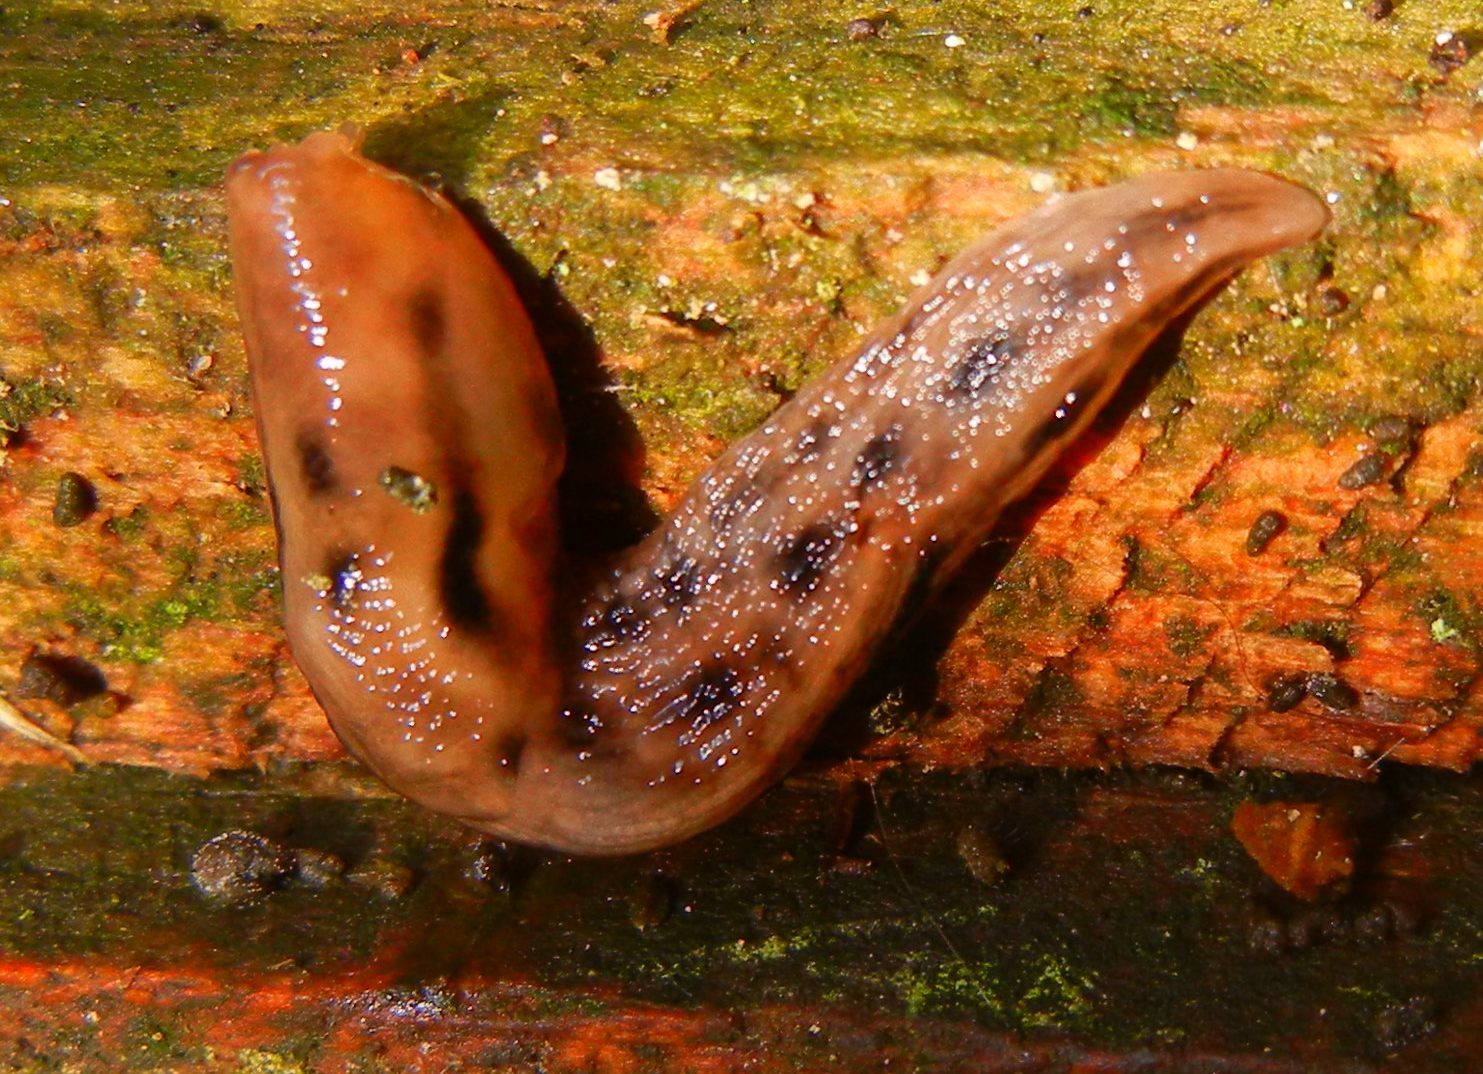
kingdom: Animalia
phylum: Mollusca
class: Gastropoda
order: Stylommatophora
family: Limacidae
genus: Lehmannia
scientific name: Lehmannia marginata
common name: Tree slug
